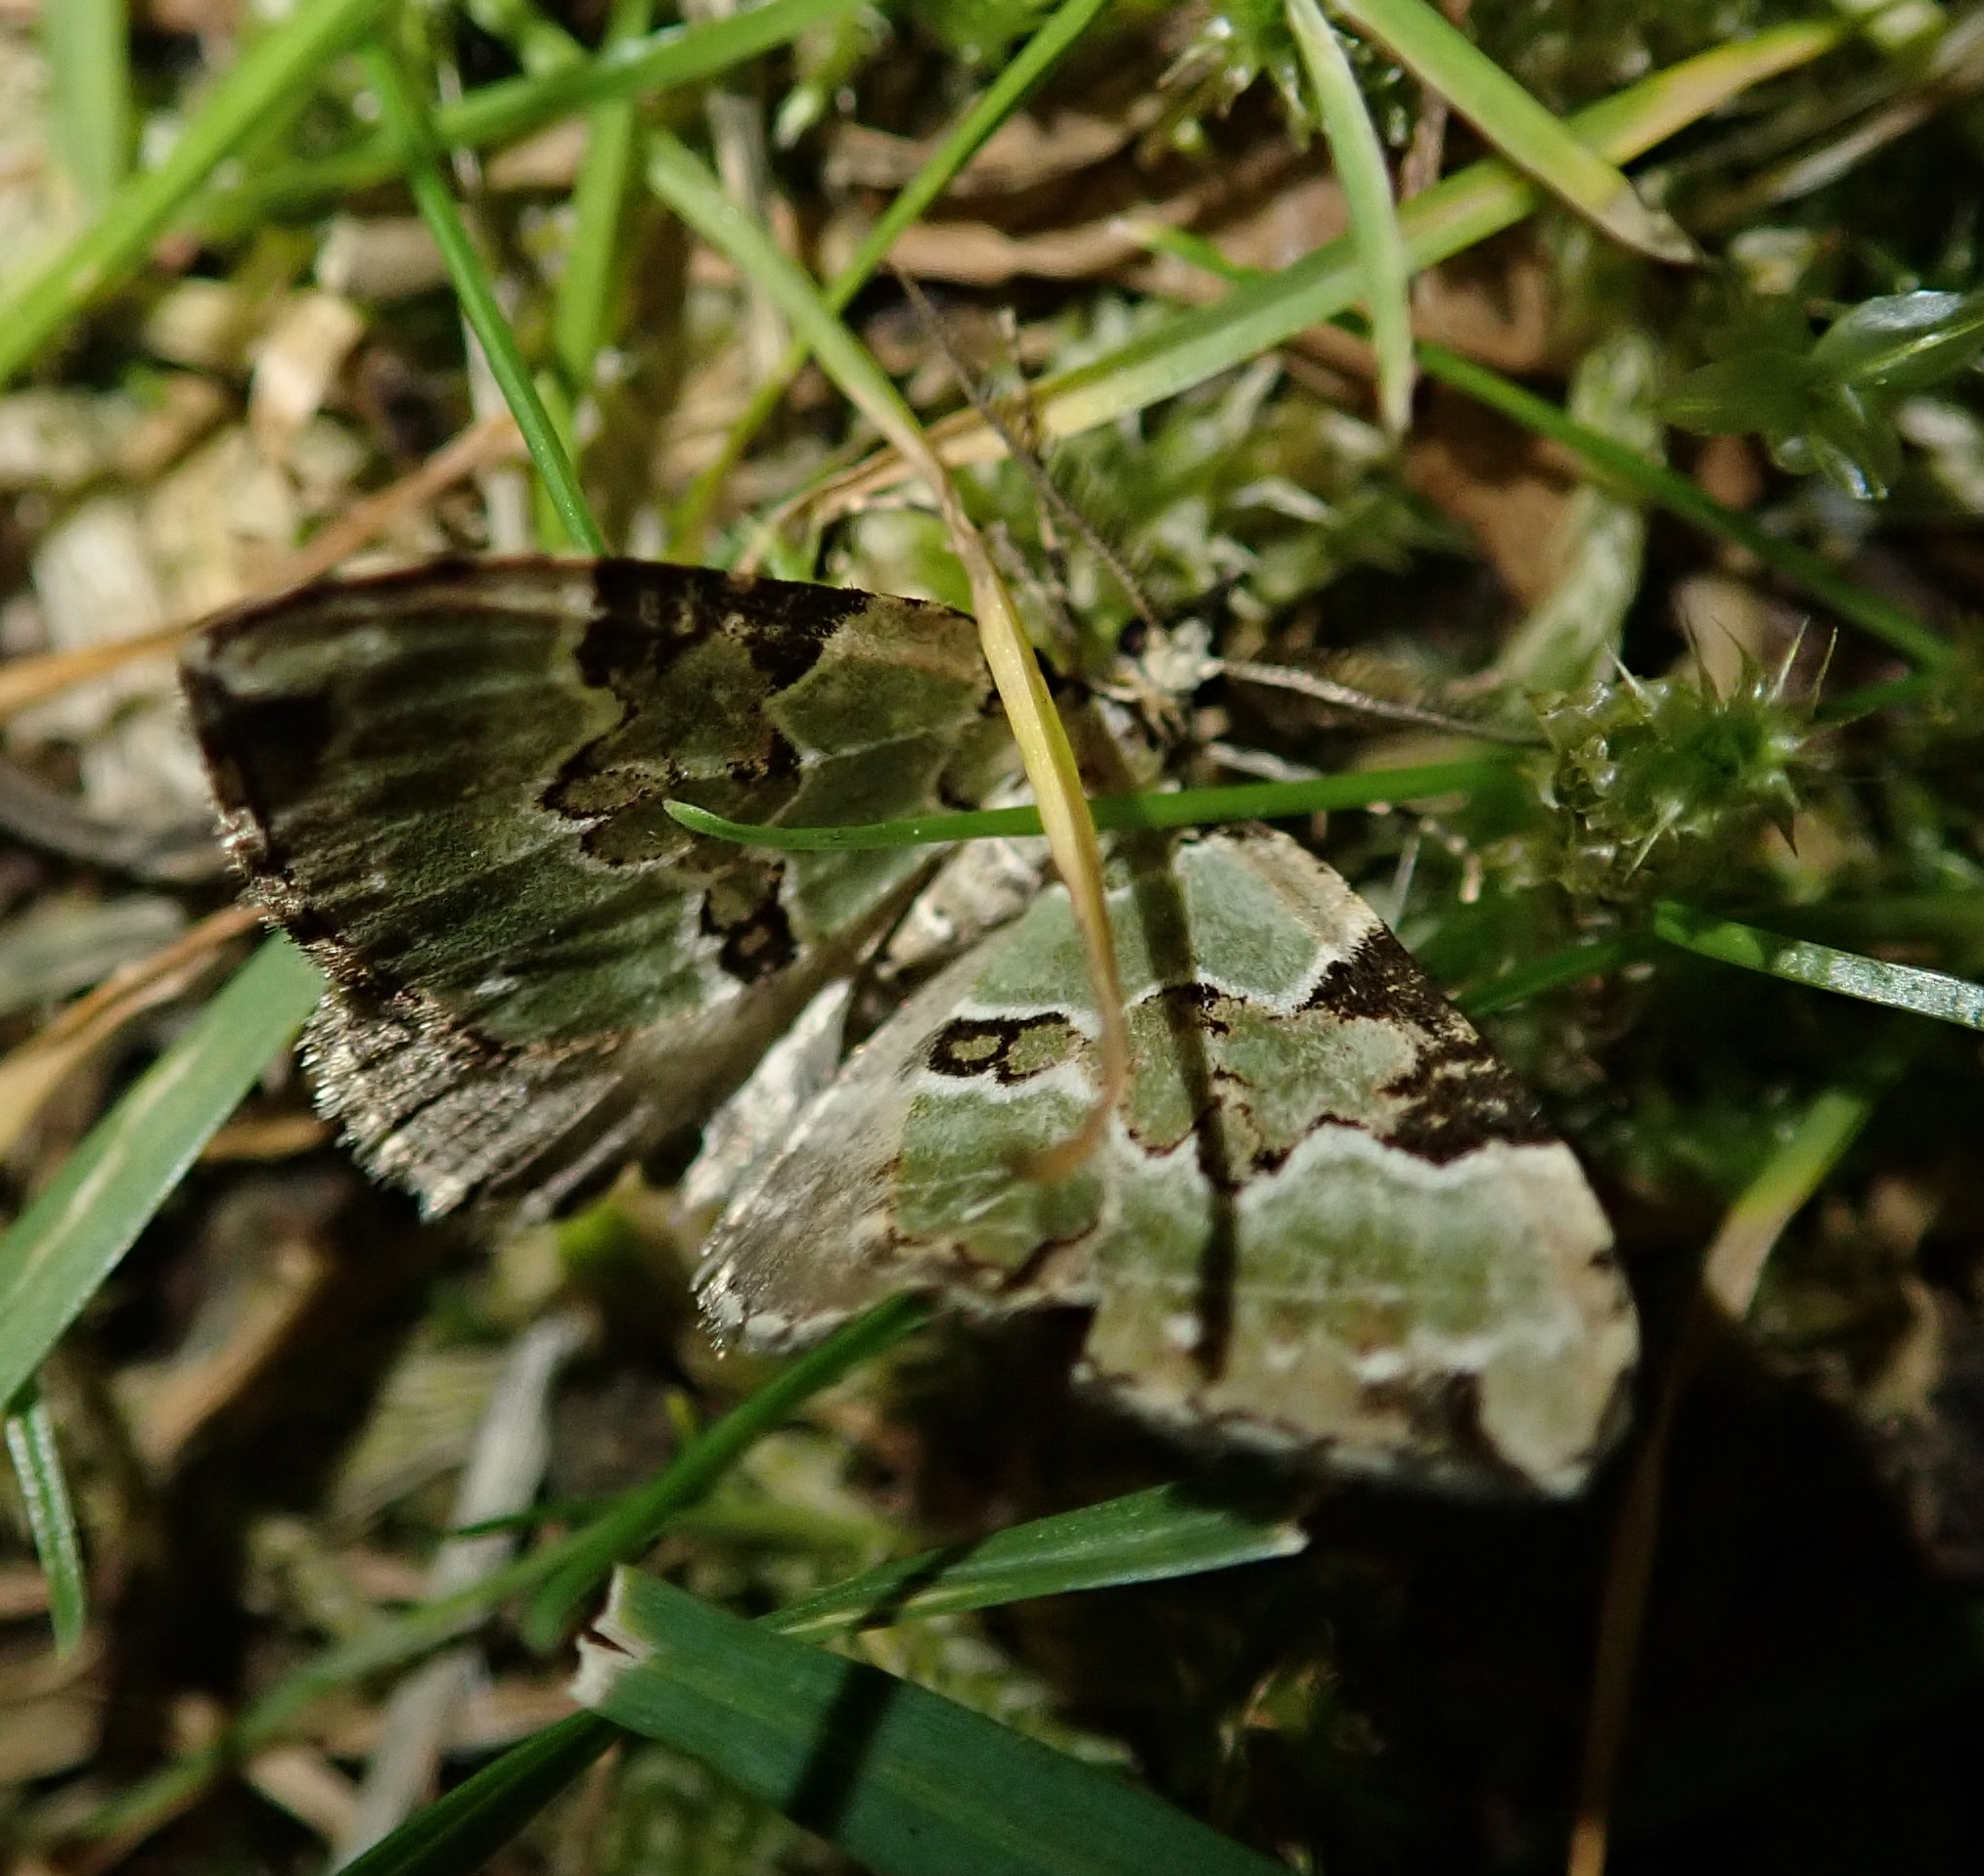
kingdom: Animalia
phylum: Arthropoda
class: Insecta
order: Lepidoptera
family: Geometridae
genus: Colostygia
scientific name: Colostygia pectinataria
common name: Green carpet
